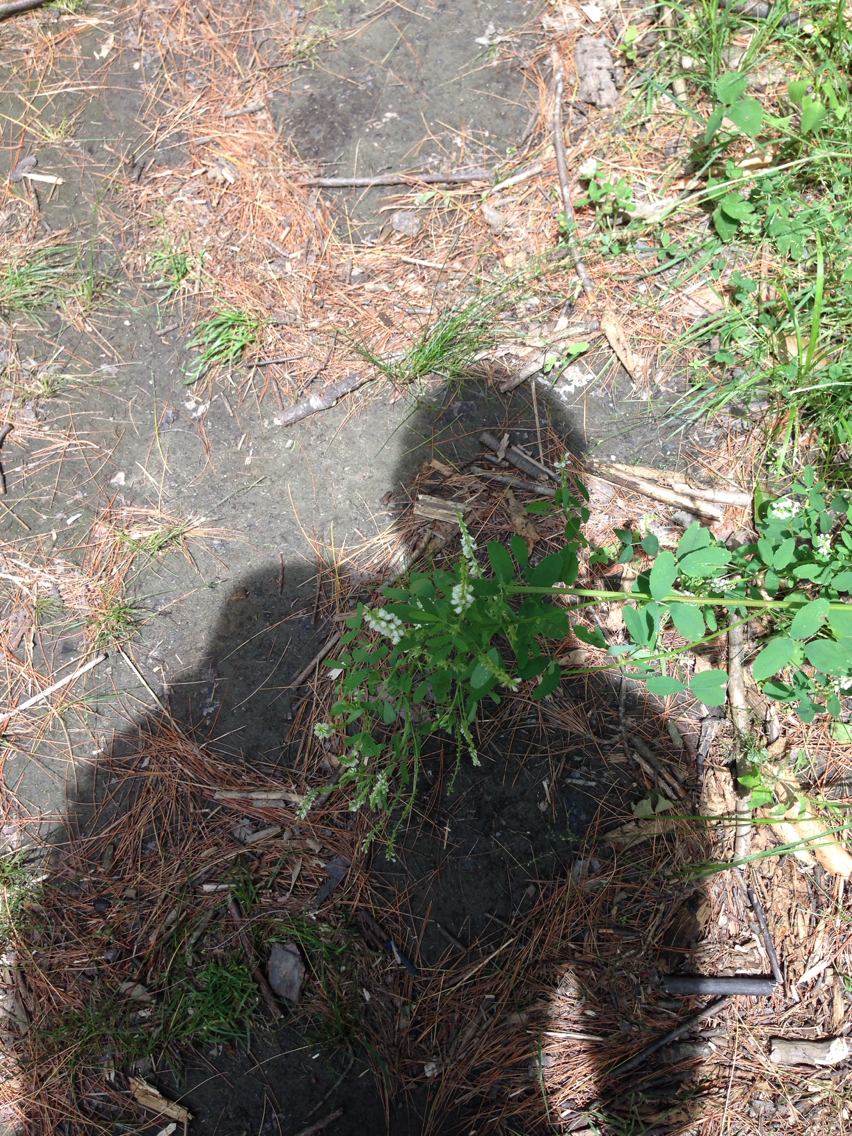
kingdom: Plantae
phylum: Tracheophyta
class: Magnoliopsida
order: Fabales
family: Fabaceae
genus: Melilotus
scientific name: Melilotus albus
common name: White melilot
